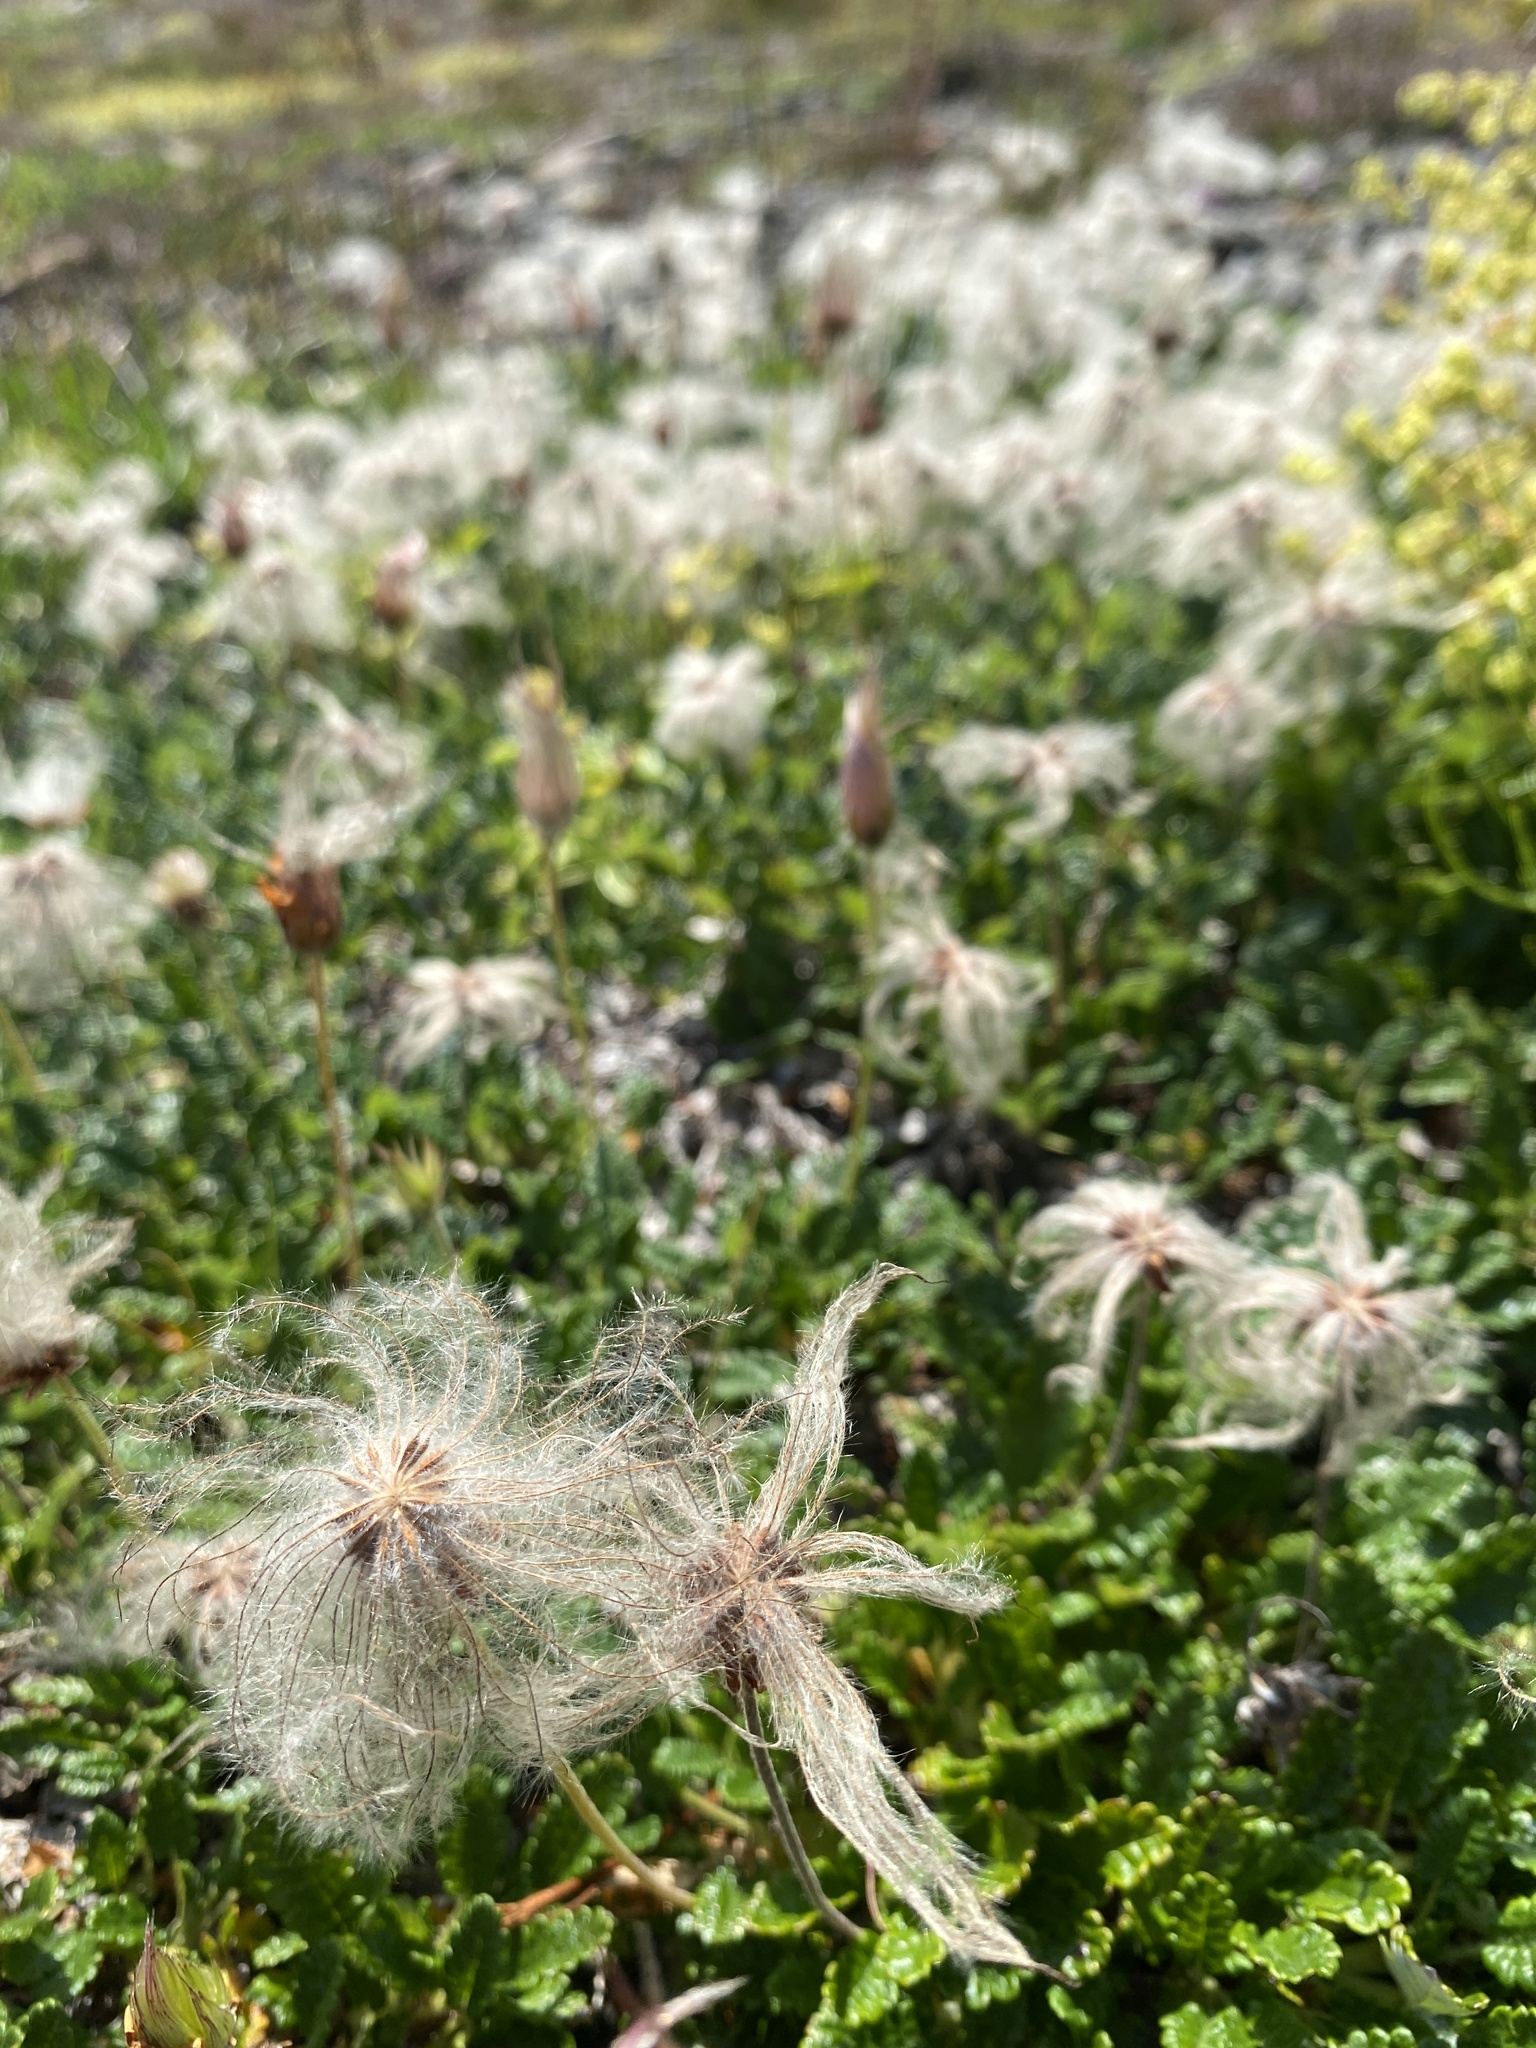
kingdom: Plantae
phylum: Tracheophyta
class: Magnoliopsida
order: Rosales
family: Rosaceae
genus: Dryas
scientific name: Dryas octopetala
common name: Eight-petal mountain-avens
